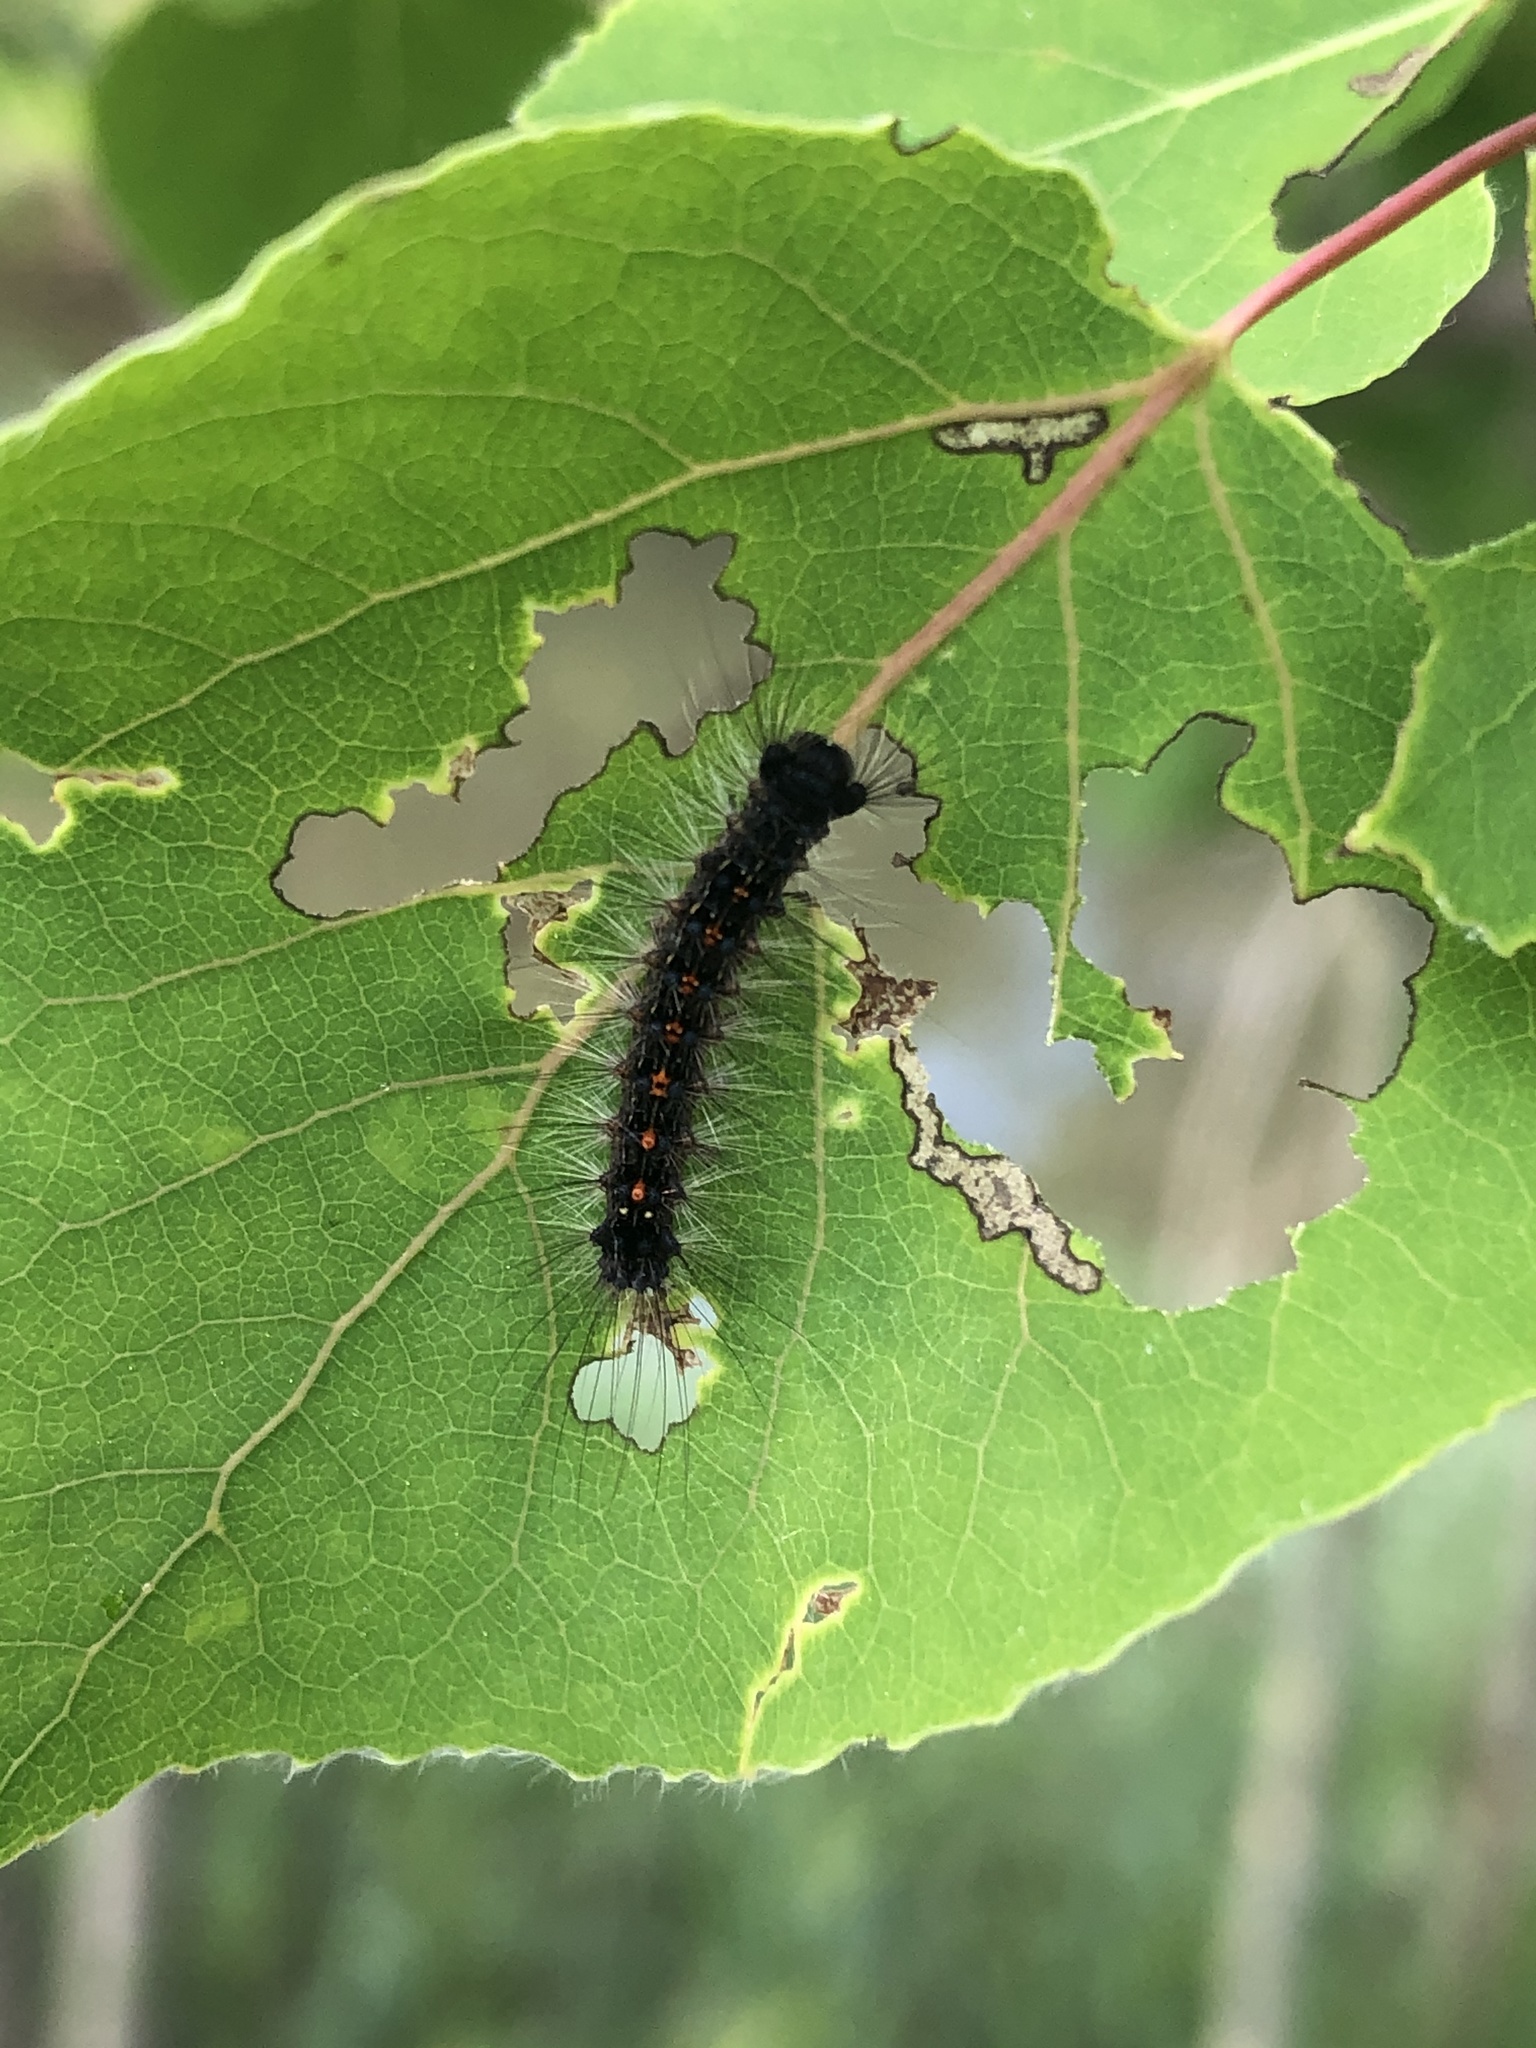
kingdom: Animalia
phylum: Arthropoda
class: Insecta
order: Lepidoptera
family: Erebidae
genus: Lymantria
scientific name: Lymantria dispar
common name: Gypsy moth
